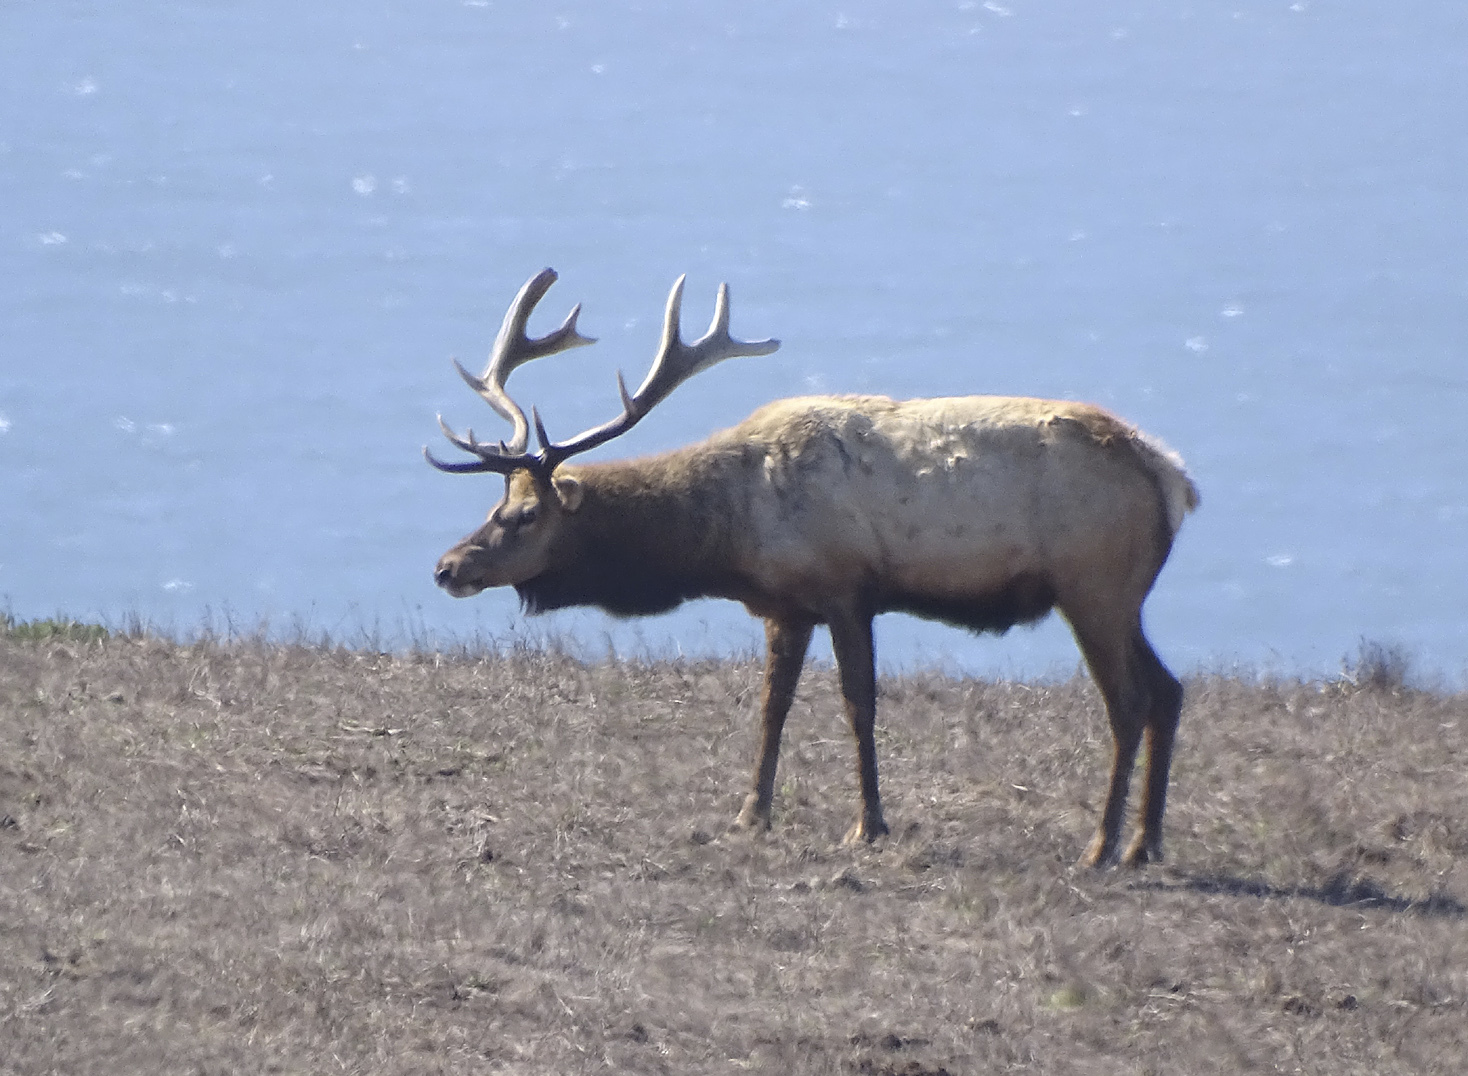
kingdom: Animalia
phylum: Chordata
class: Mammalia
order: Artiodactyla
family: Cervidae
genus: Cervus
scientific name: Cervus elaphus
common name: Red deer
